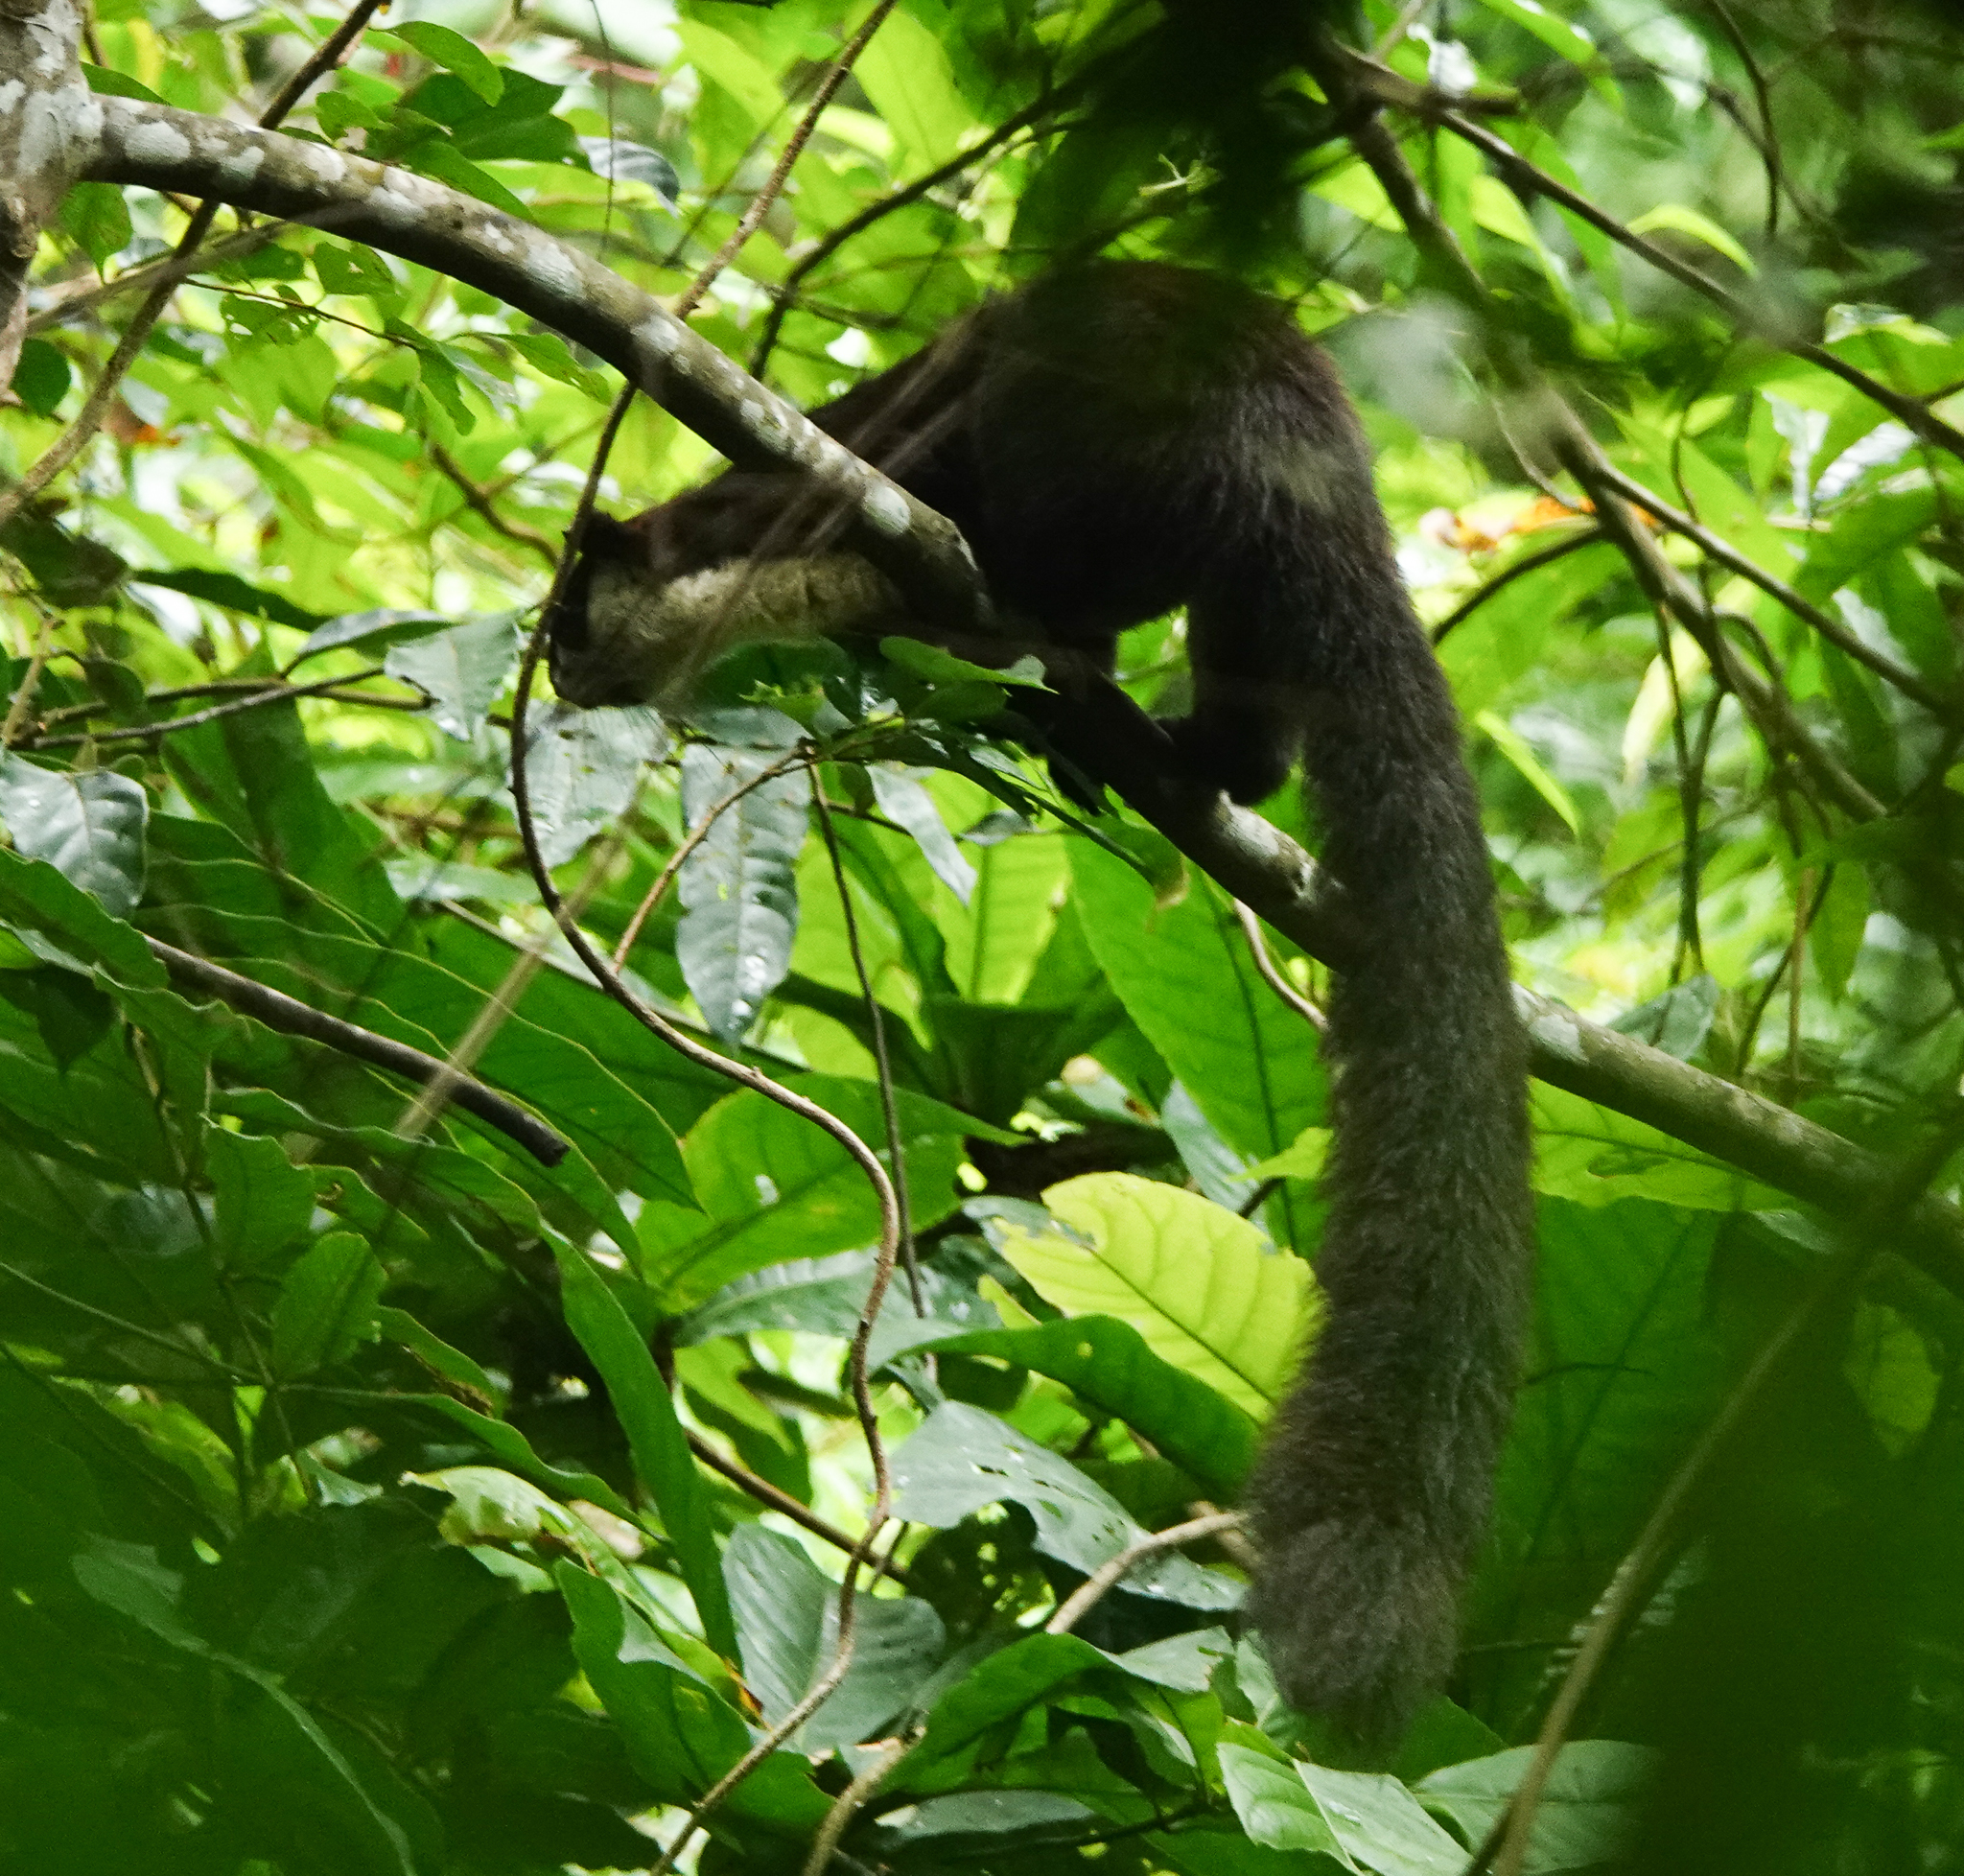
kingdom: Animalia
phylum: Chordata
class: Mammalia
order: Rodentia
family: Sciuridae
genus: Ratufa
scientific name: Ratufa bicolor
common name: Black giant squirrel
